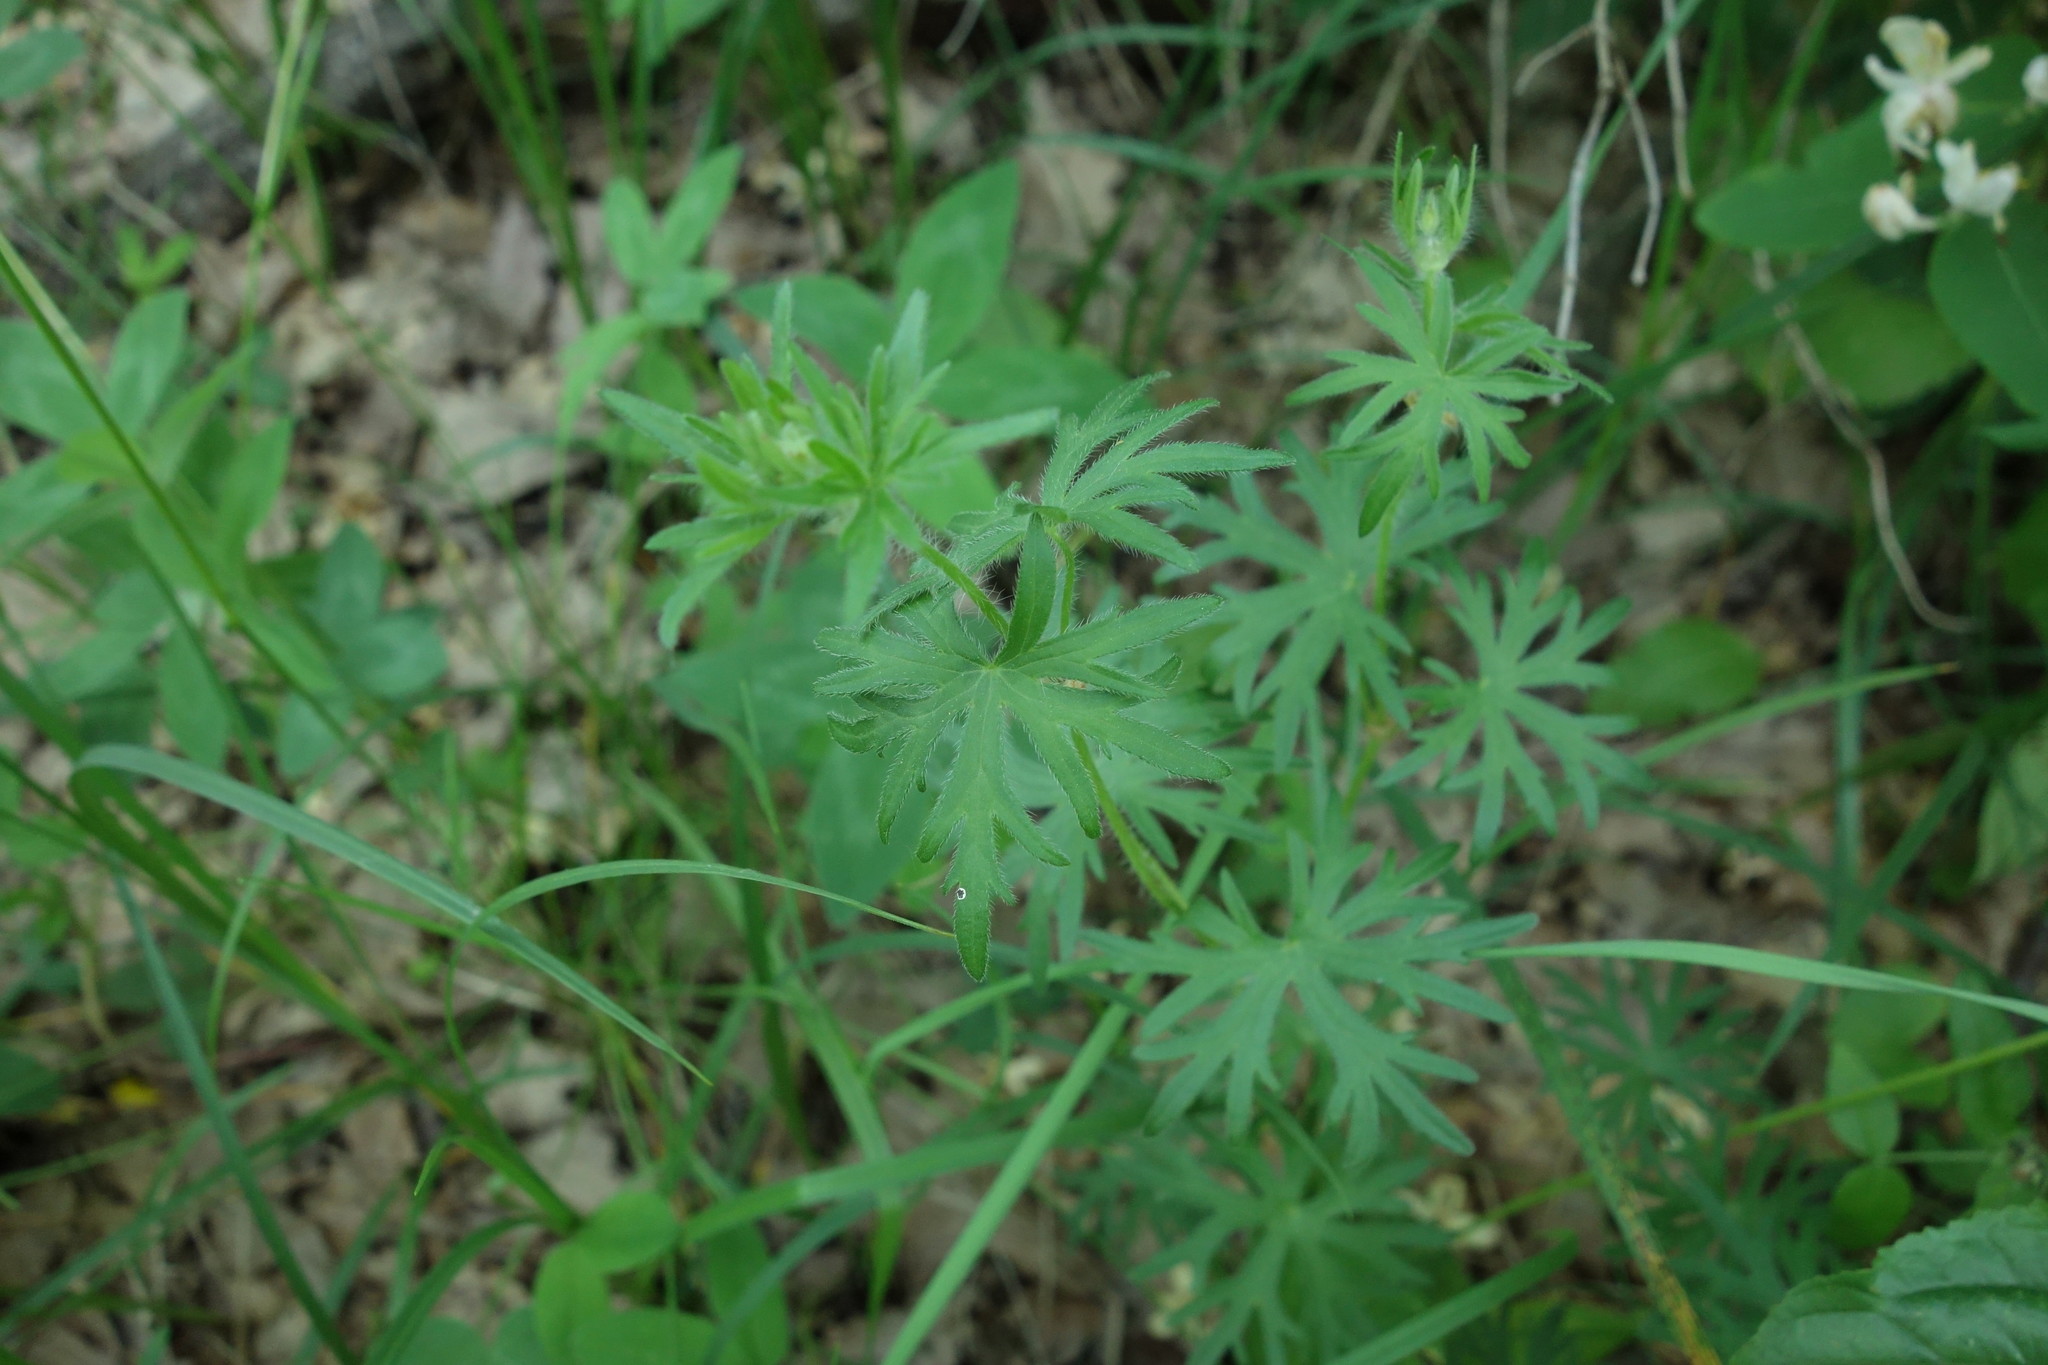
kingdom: Plantae
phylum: Tracheophyta
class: Magnoliopsida
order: Geraniales
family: Geraniaceae
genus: Geranium
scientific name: Geranium sanguineum
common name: Bloody crane's-bill
